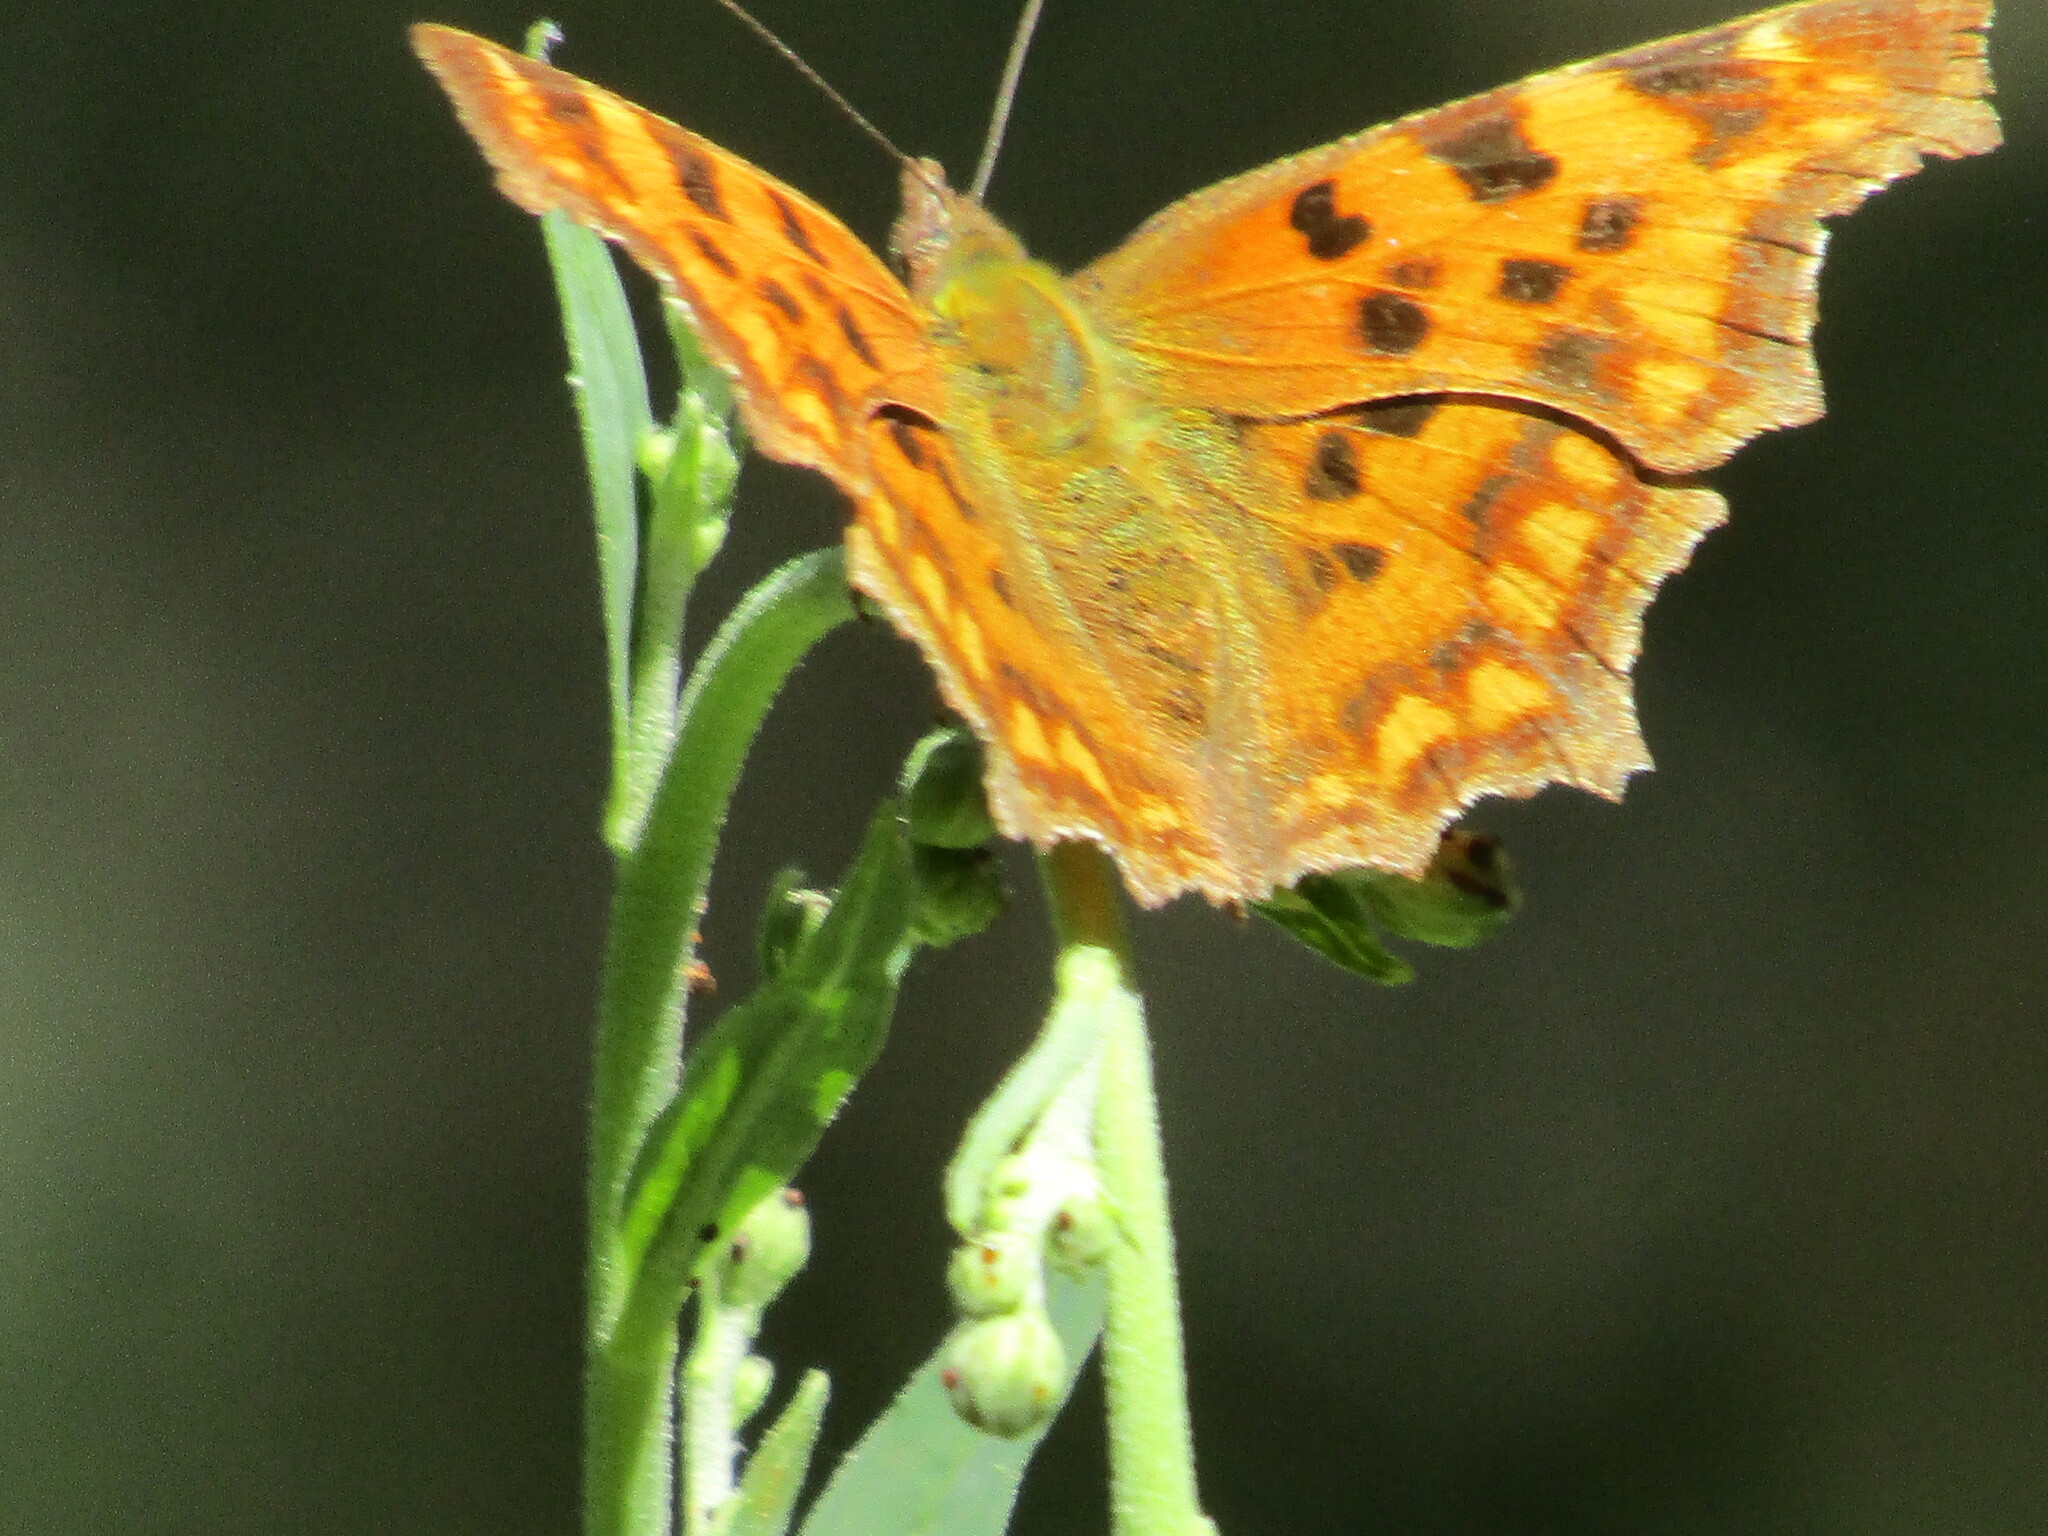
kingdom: Animalia
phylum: Arthropoda
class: Insecta
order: Lepidoptera
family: Nymphalidae
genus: Polygonia
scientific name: Polygonia c-album
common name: Comma
